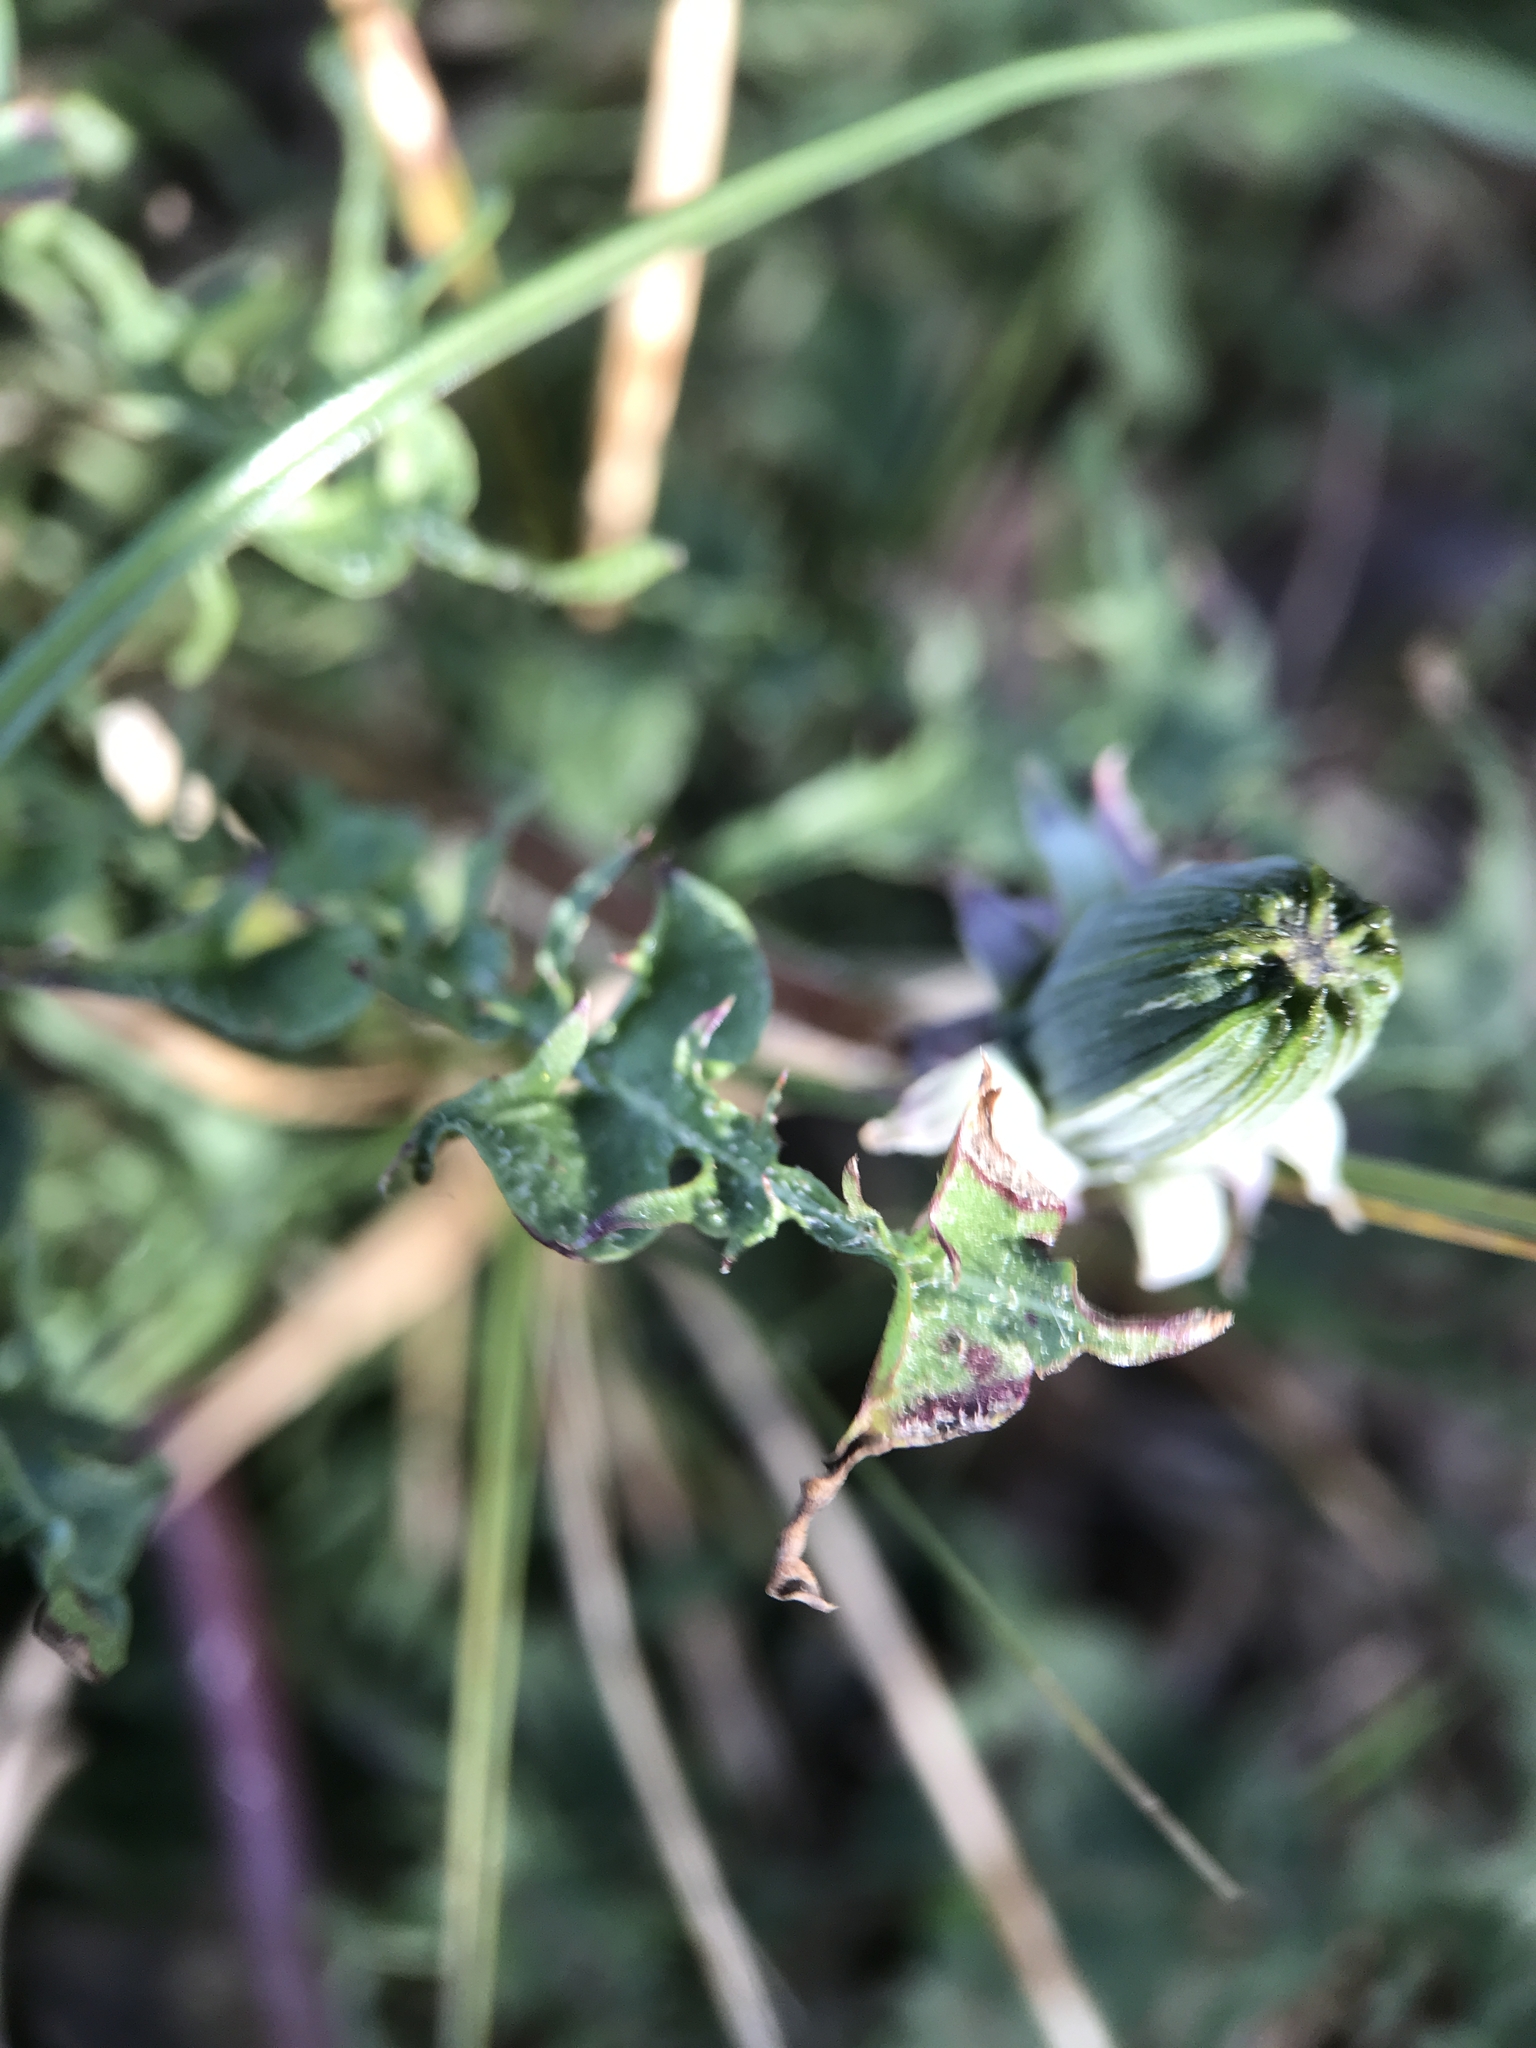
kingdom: Plantae
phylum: Tracheophyta
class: Magnoliopsida
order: Asterales
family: Asteraceae
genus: Taraxacum
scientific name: Taraxacum officinale
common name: Common dandelion
